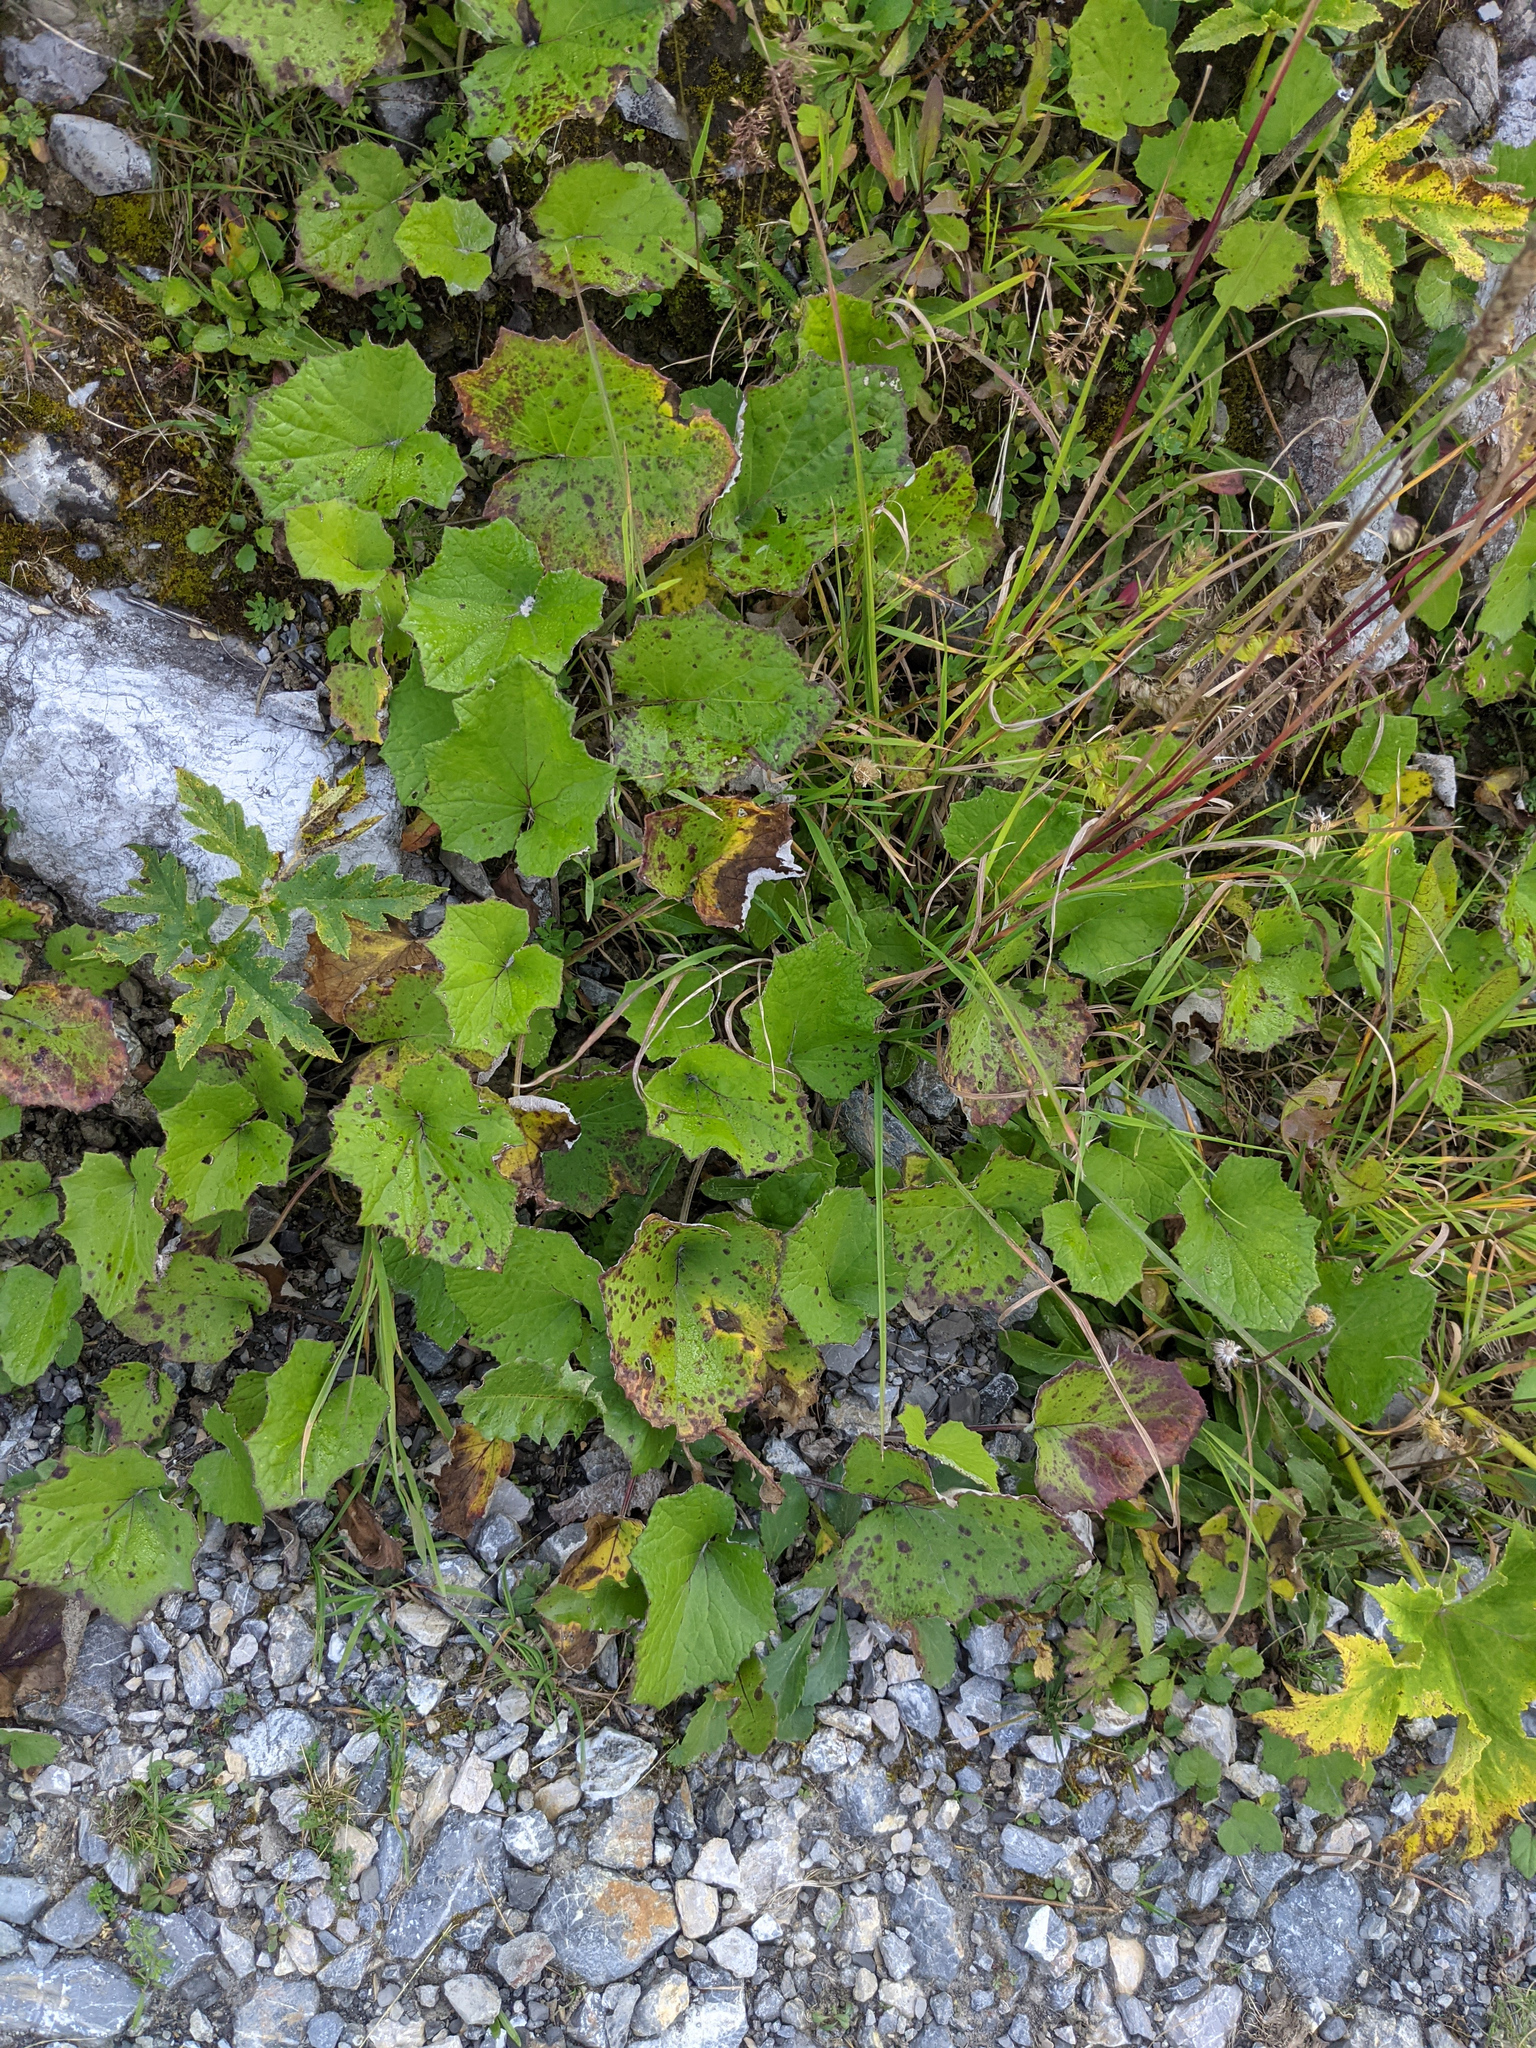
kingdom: Plantae
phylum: Tracheophyta
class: Magnoliopsida
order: Asterales
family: Asteraceae
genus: Tussilago
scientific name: Tussilago farfara
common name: Coltsfoot
